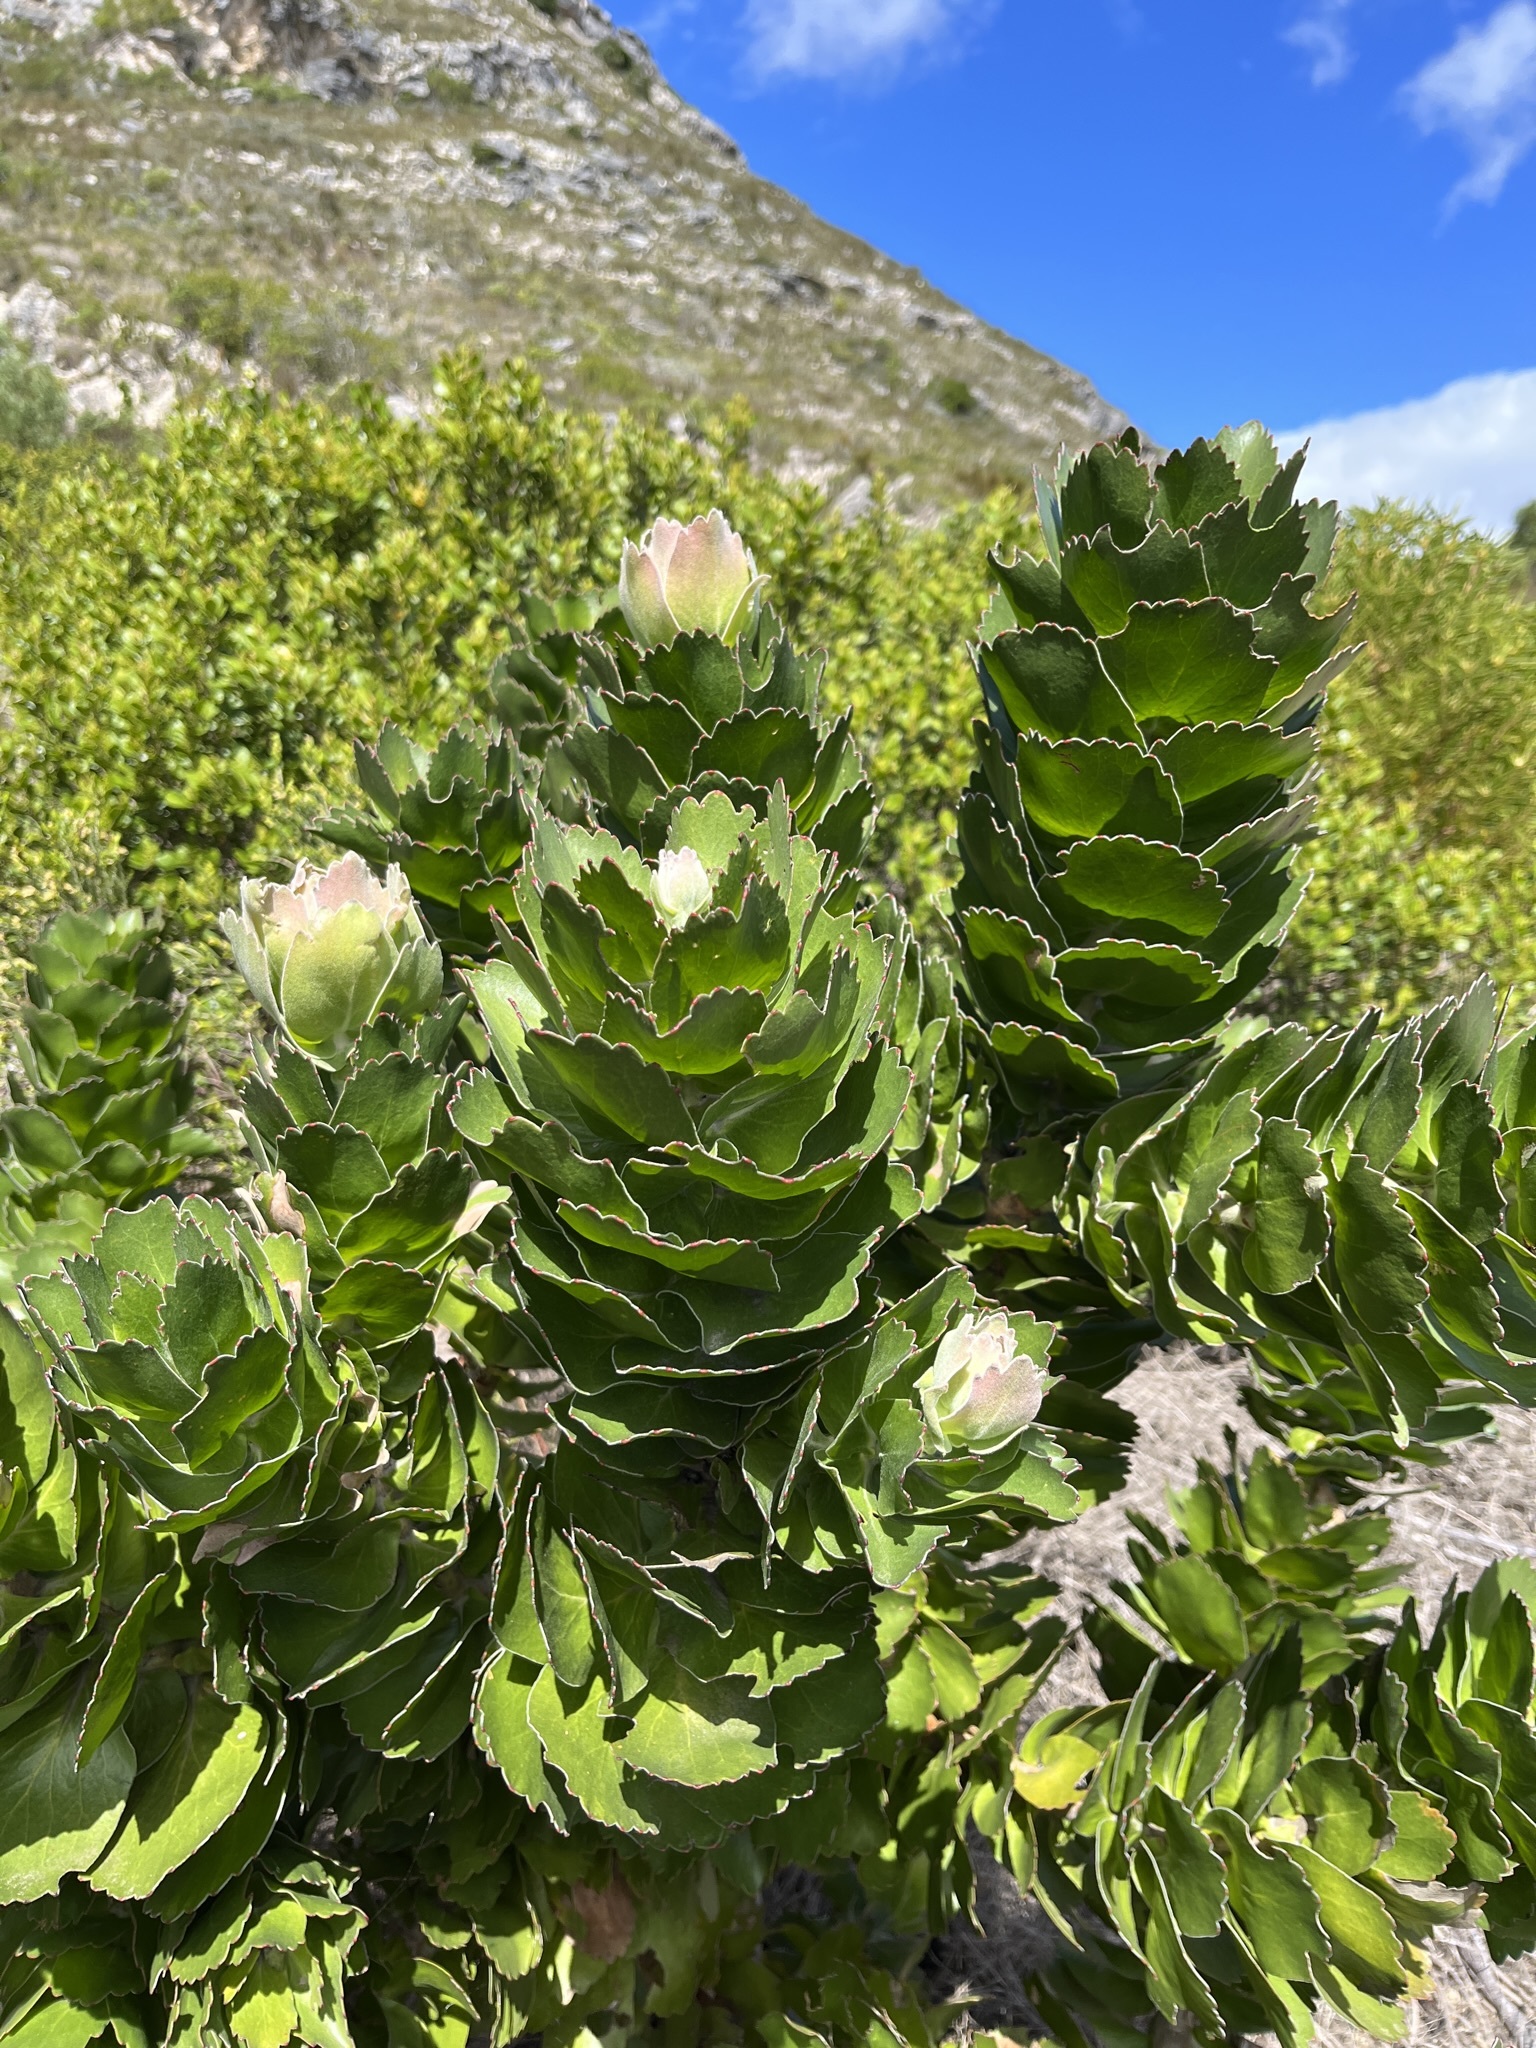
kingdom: Plantae
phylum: Tracheophyta
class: Magnoliopsida
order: Proteales
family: Proteaceae
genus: Leucospermum
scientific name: Leucospermum patersonii
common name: False tree pincushion
